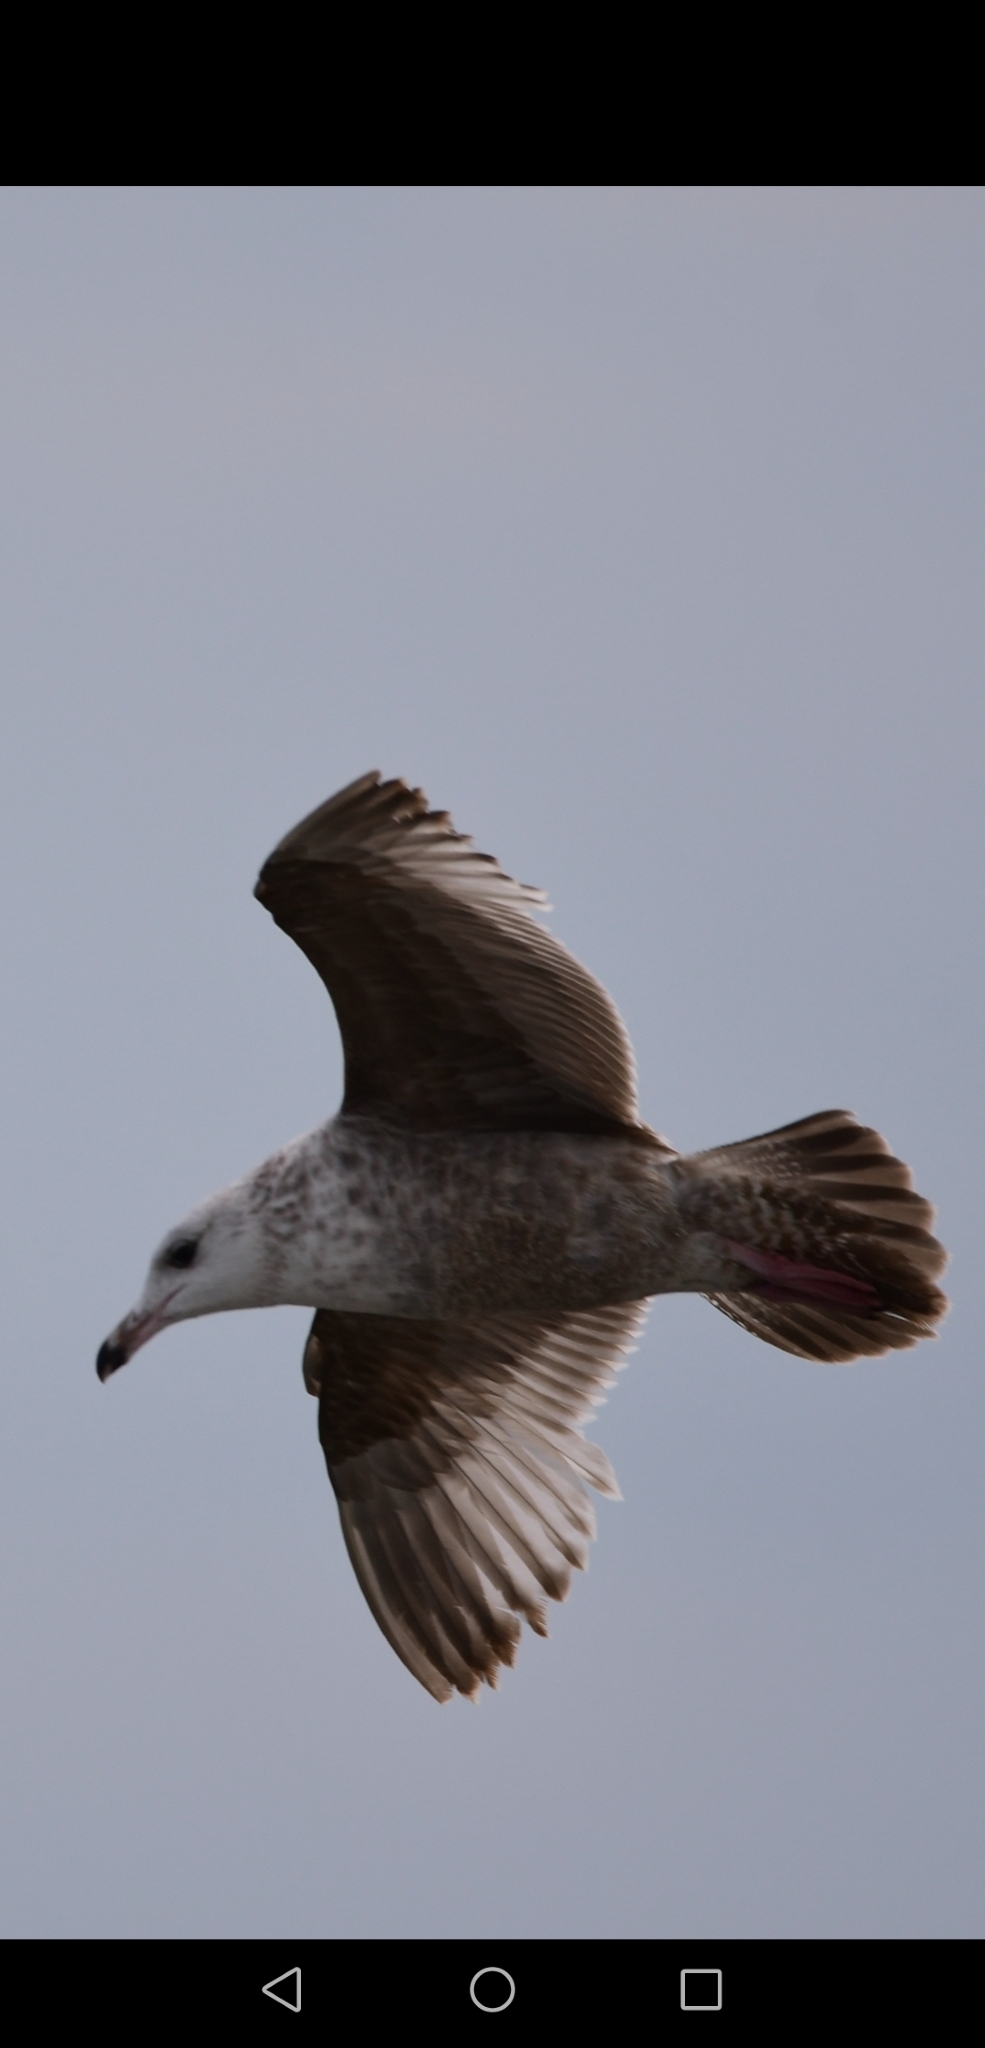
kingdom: Animalia
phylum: Chordata
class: Aves
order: Charadriiformes
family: Laridae
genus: Larus
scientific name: Larus argentatus
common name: Herring gull
